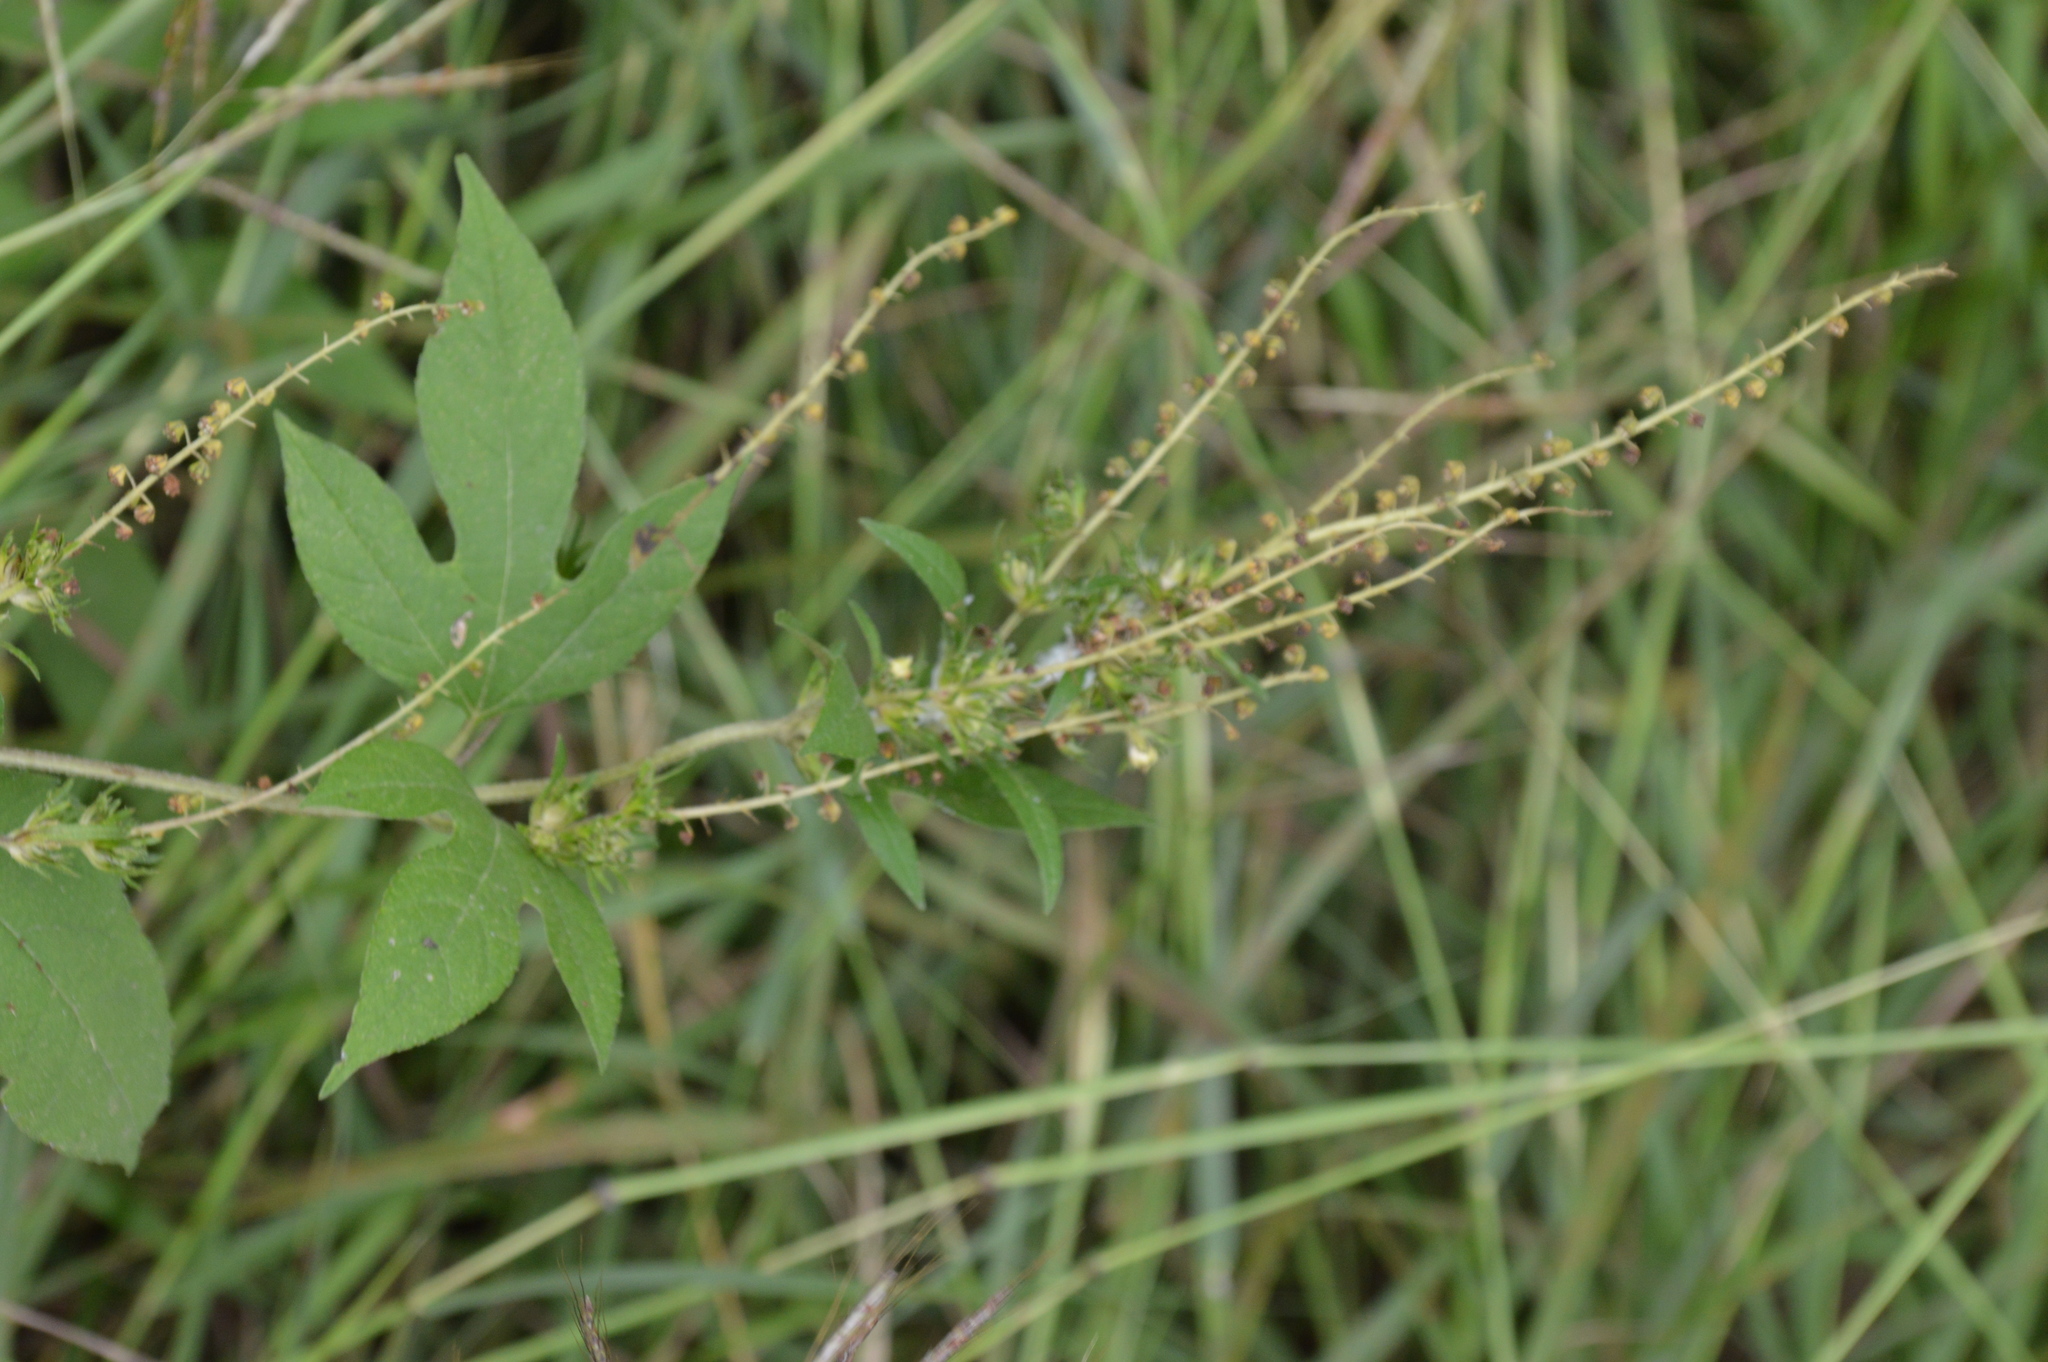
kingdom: Plantae
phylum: Tracheophyta
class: Magnoliopsida
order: Asterales
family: Asteraceae
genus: Ambrosia
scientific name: Ambrosia trifida
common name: Giant ragweed
